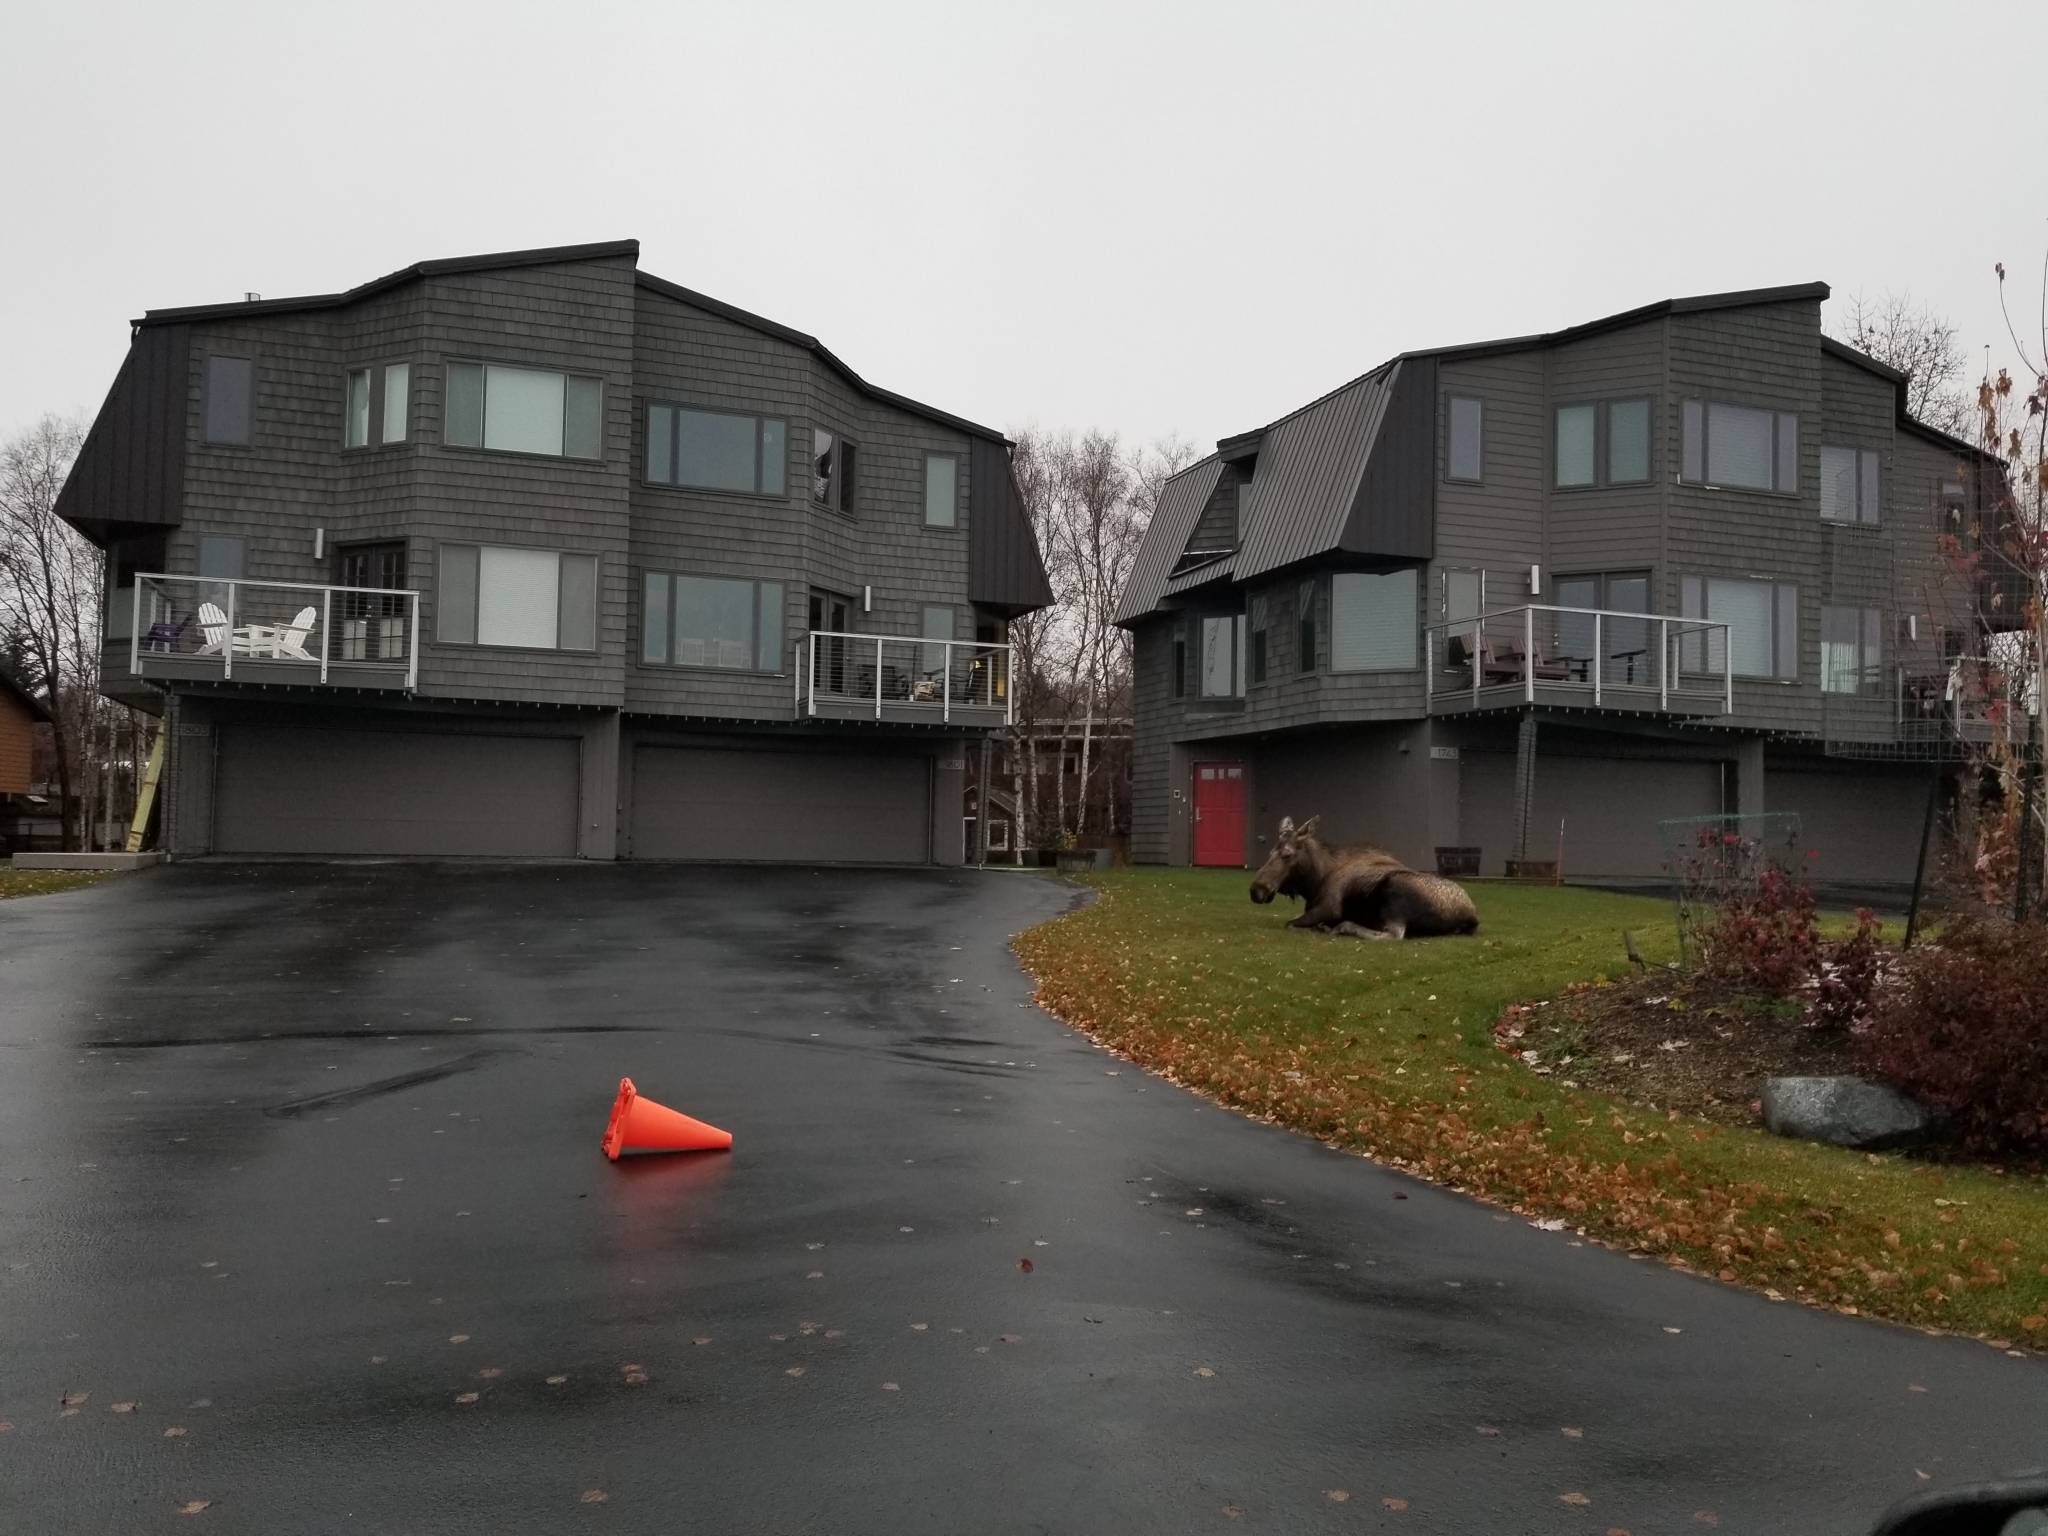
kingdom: Animalia
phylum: Chordata
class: Mammalia
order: Artiodactyla
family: Cervidae
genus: Alces
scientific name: Alces alces
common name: Moose
